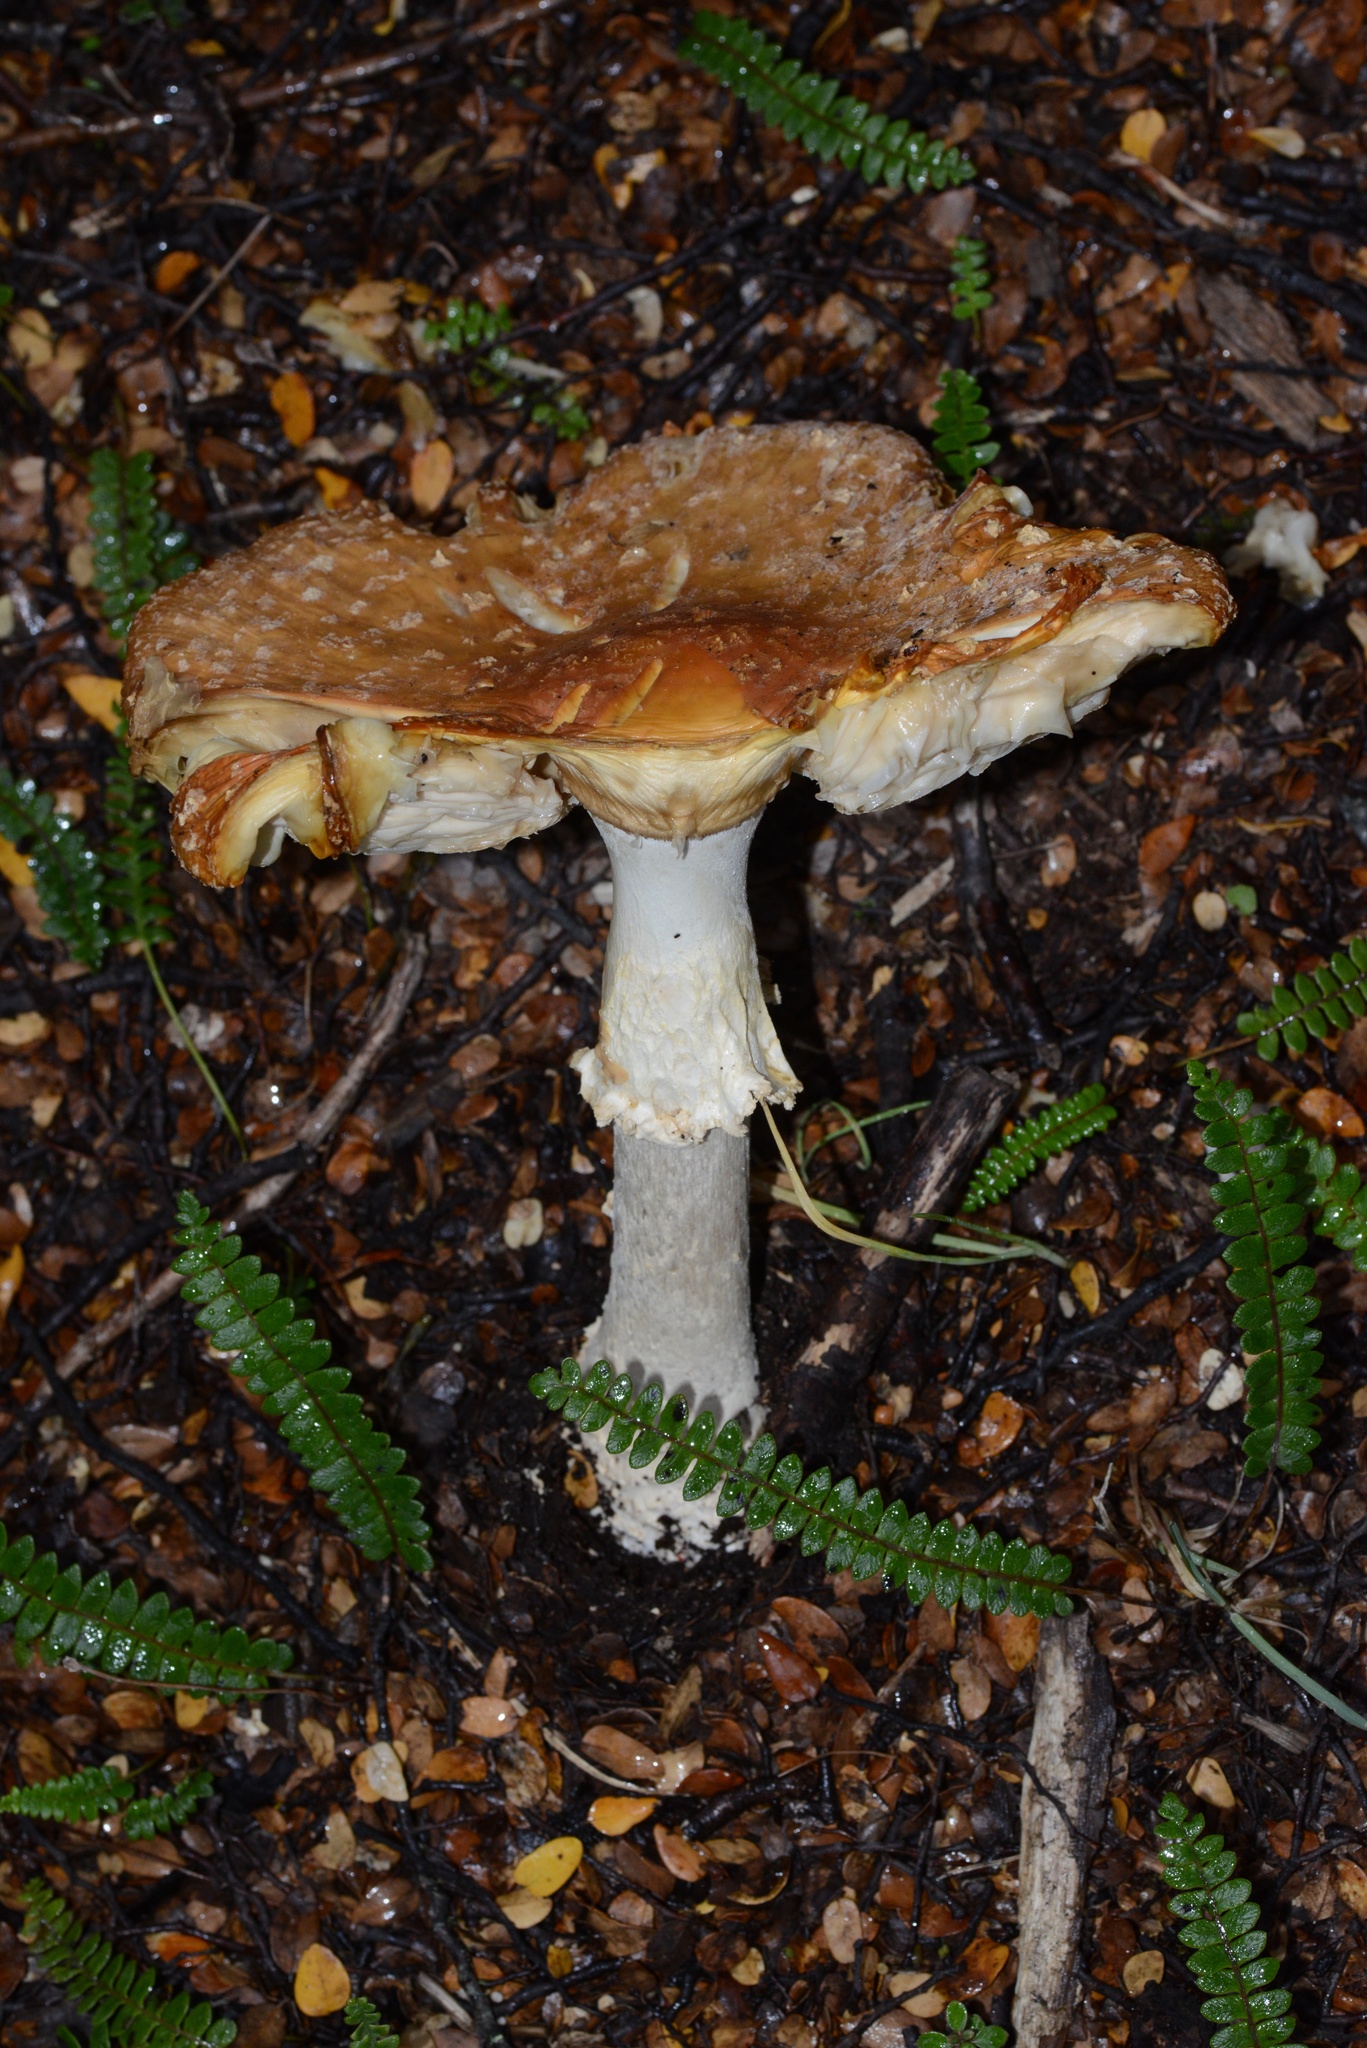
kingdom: Fungi
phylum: Basidiomycota
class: Agaricomycetes
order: Agaricales
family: Amanitaceae
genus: Amanita
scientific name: Amanita muscaria
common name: Fly agaric
